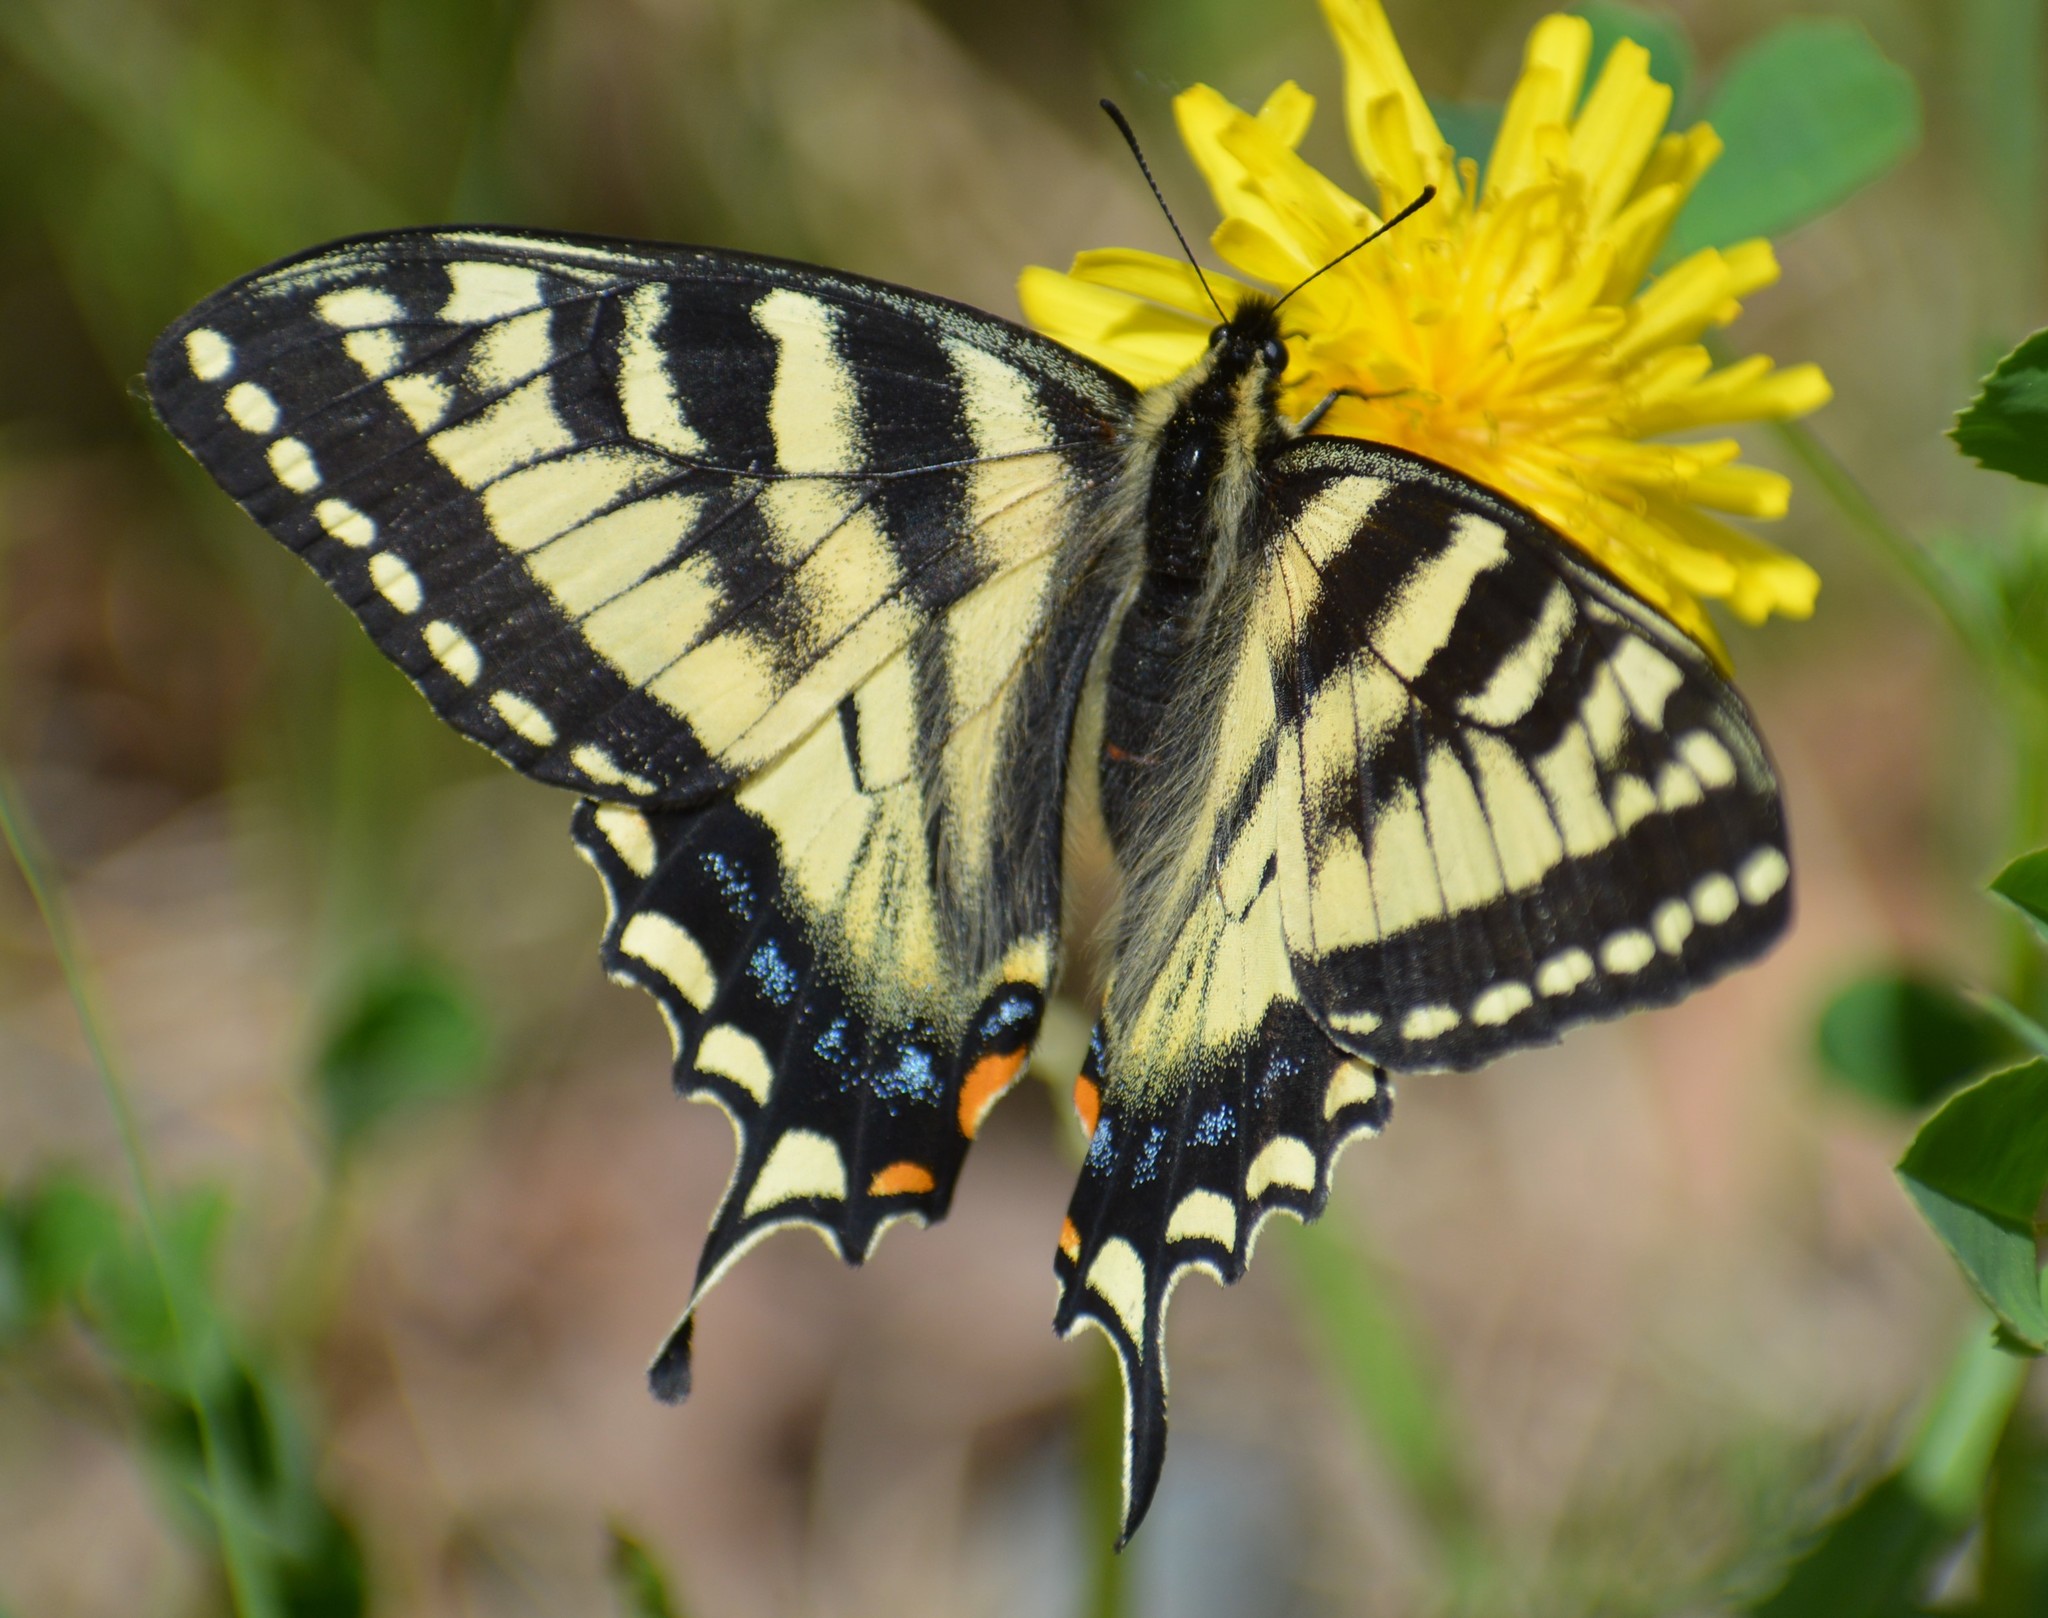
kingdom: Animalia
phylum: Arthropoda
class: Insecta
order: Lepidoptera
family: Papilionidae
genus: Papilio
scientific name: Papilio canadensis
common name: Canadian tiger swallowtail
